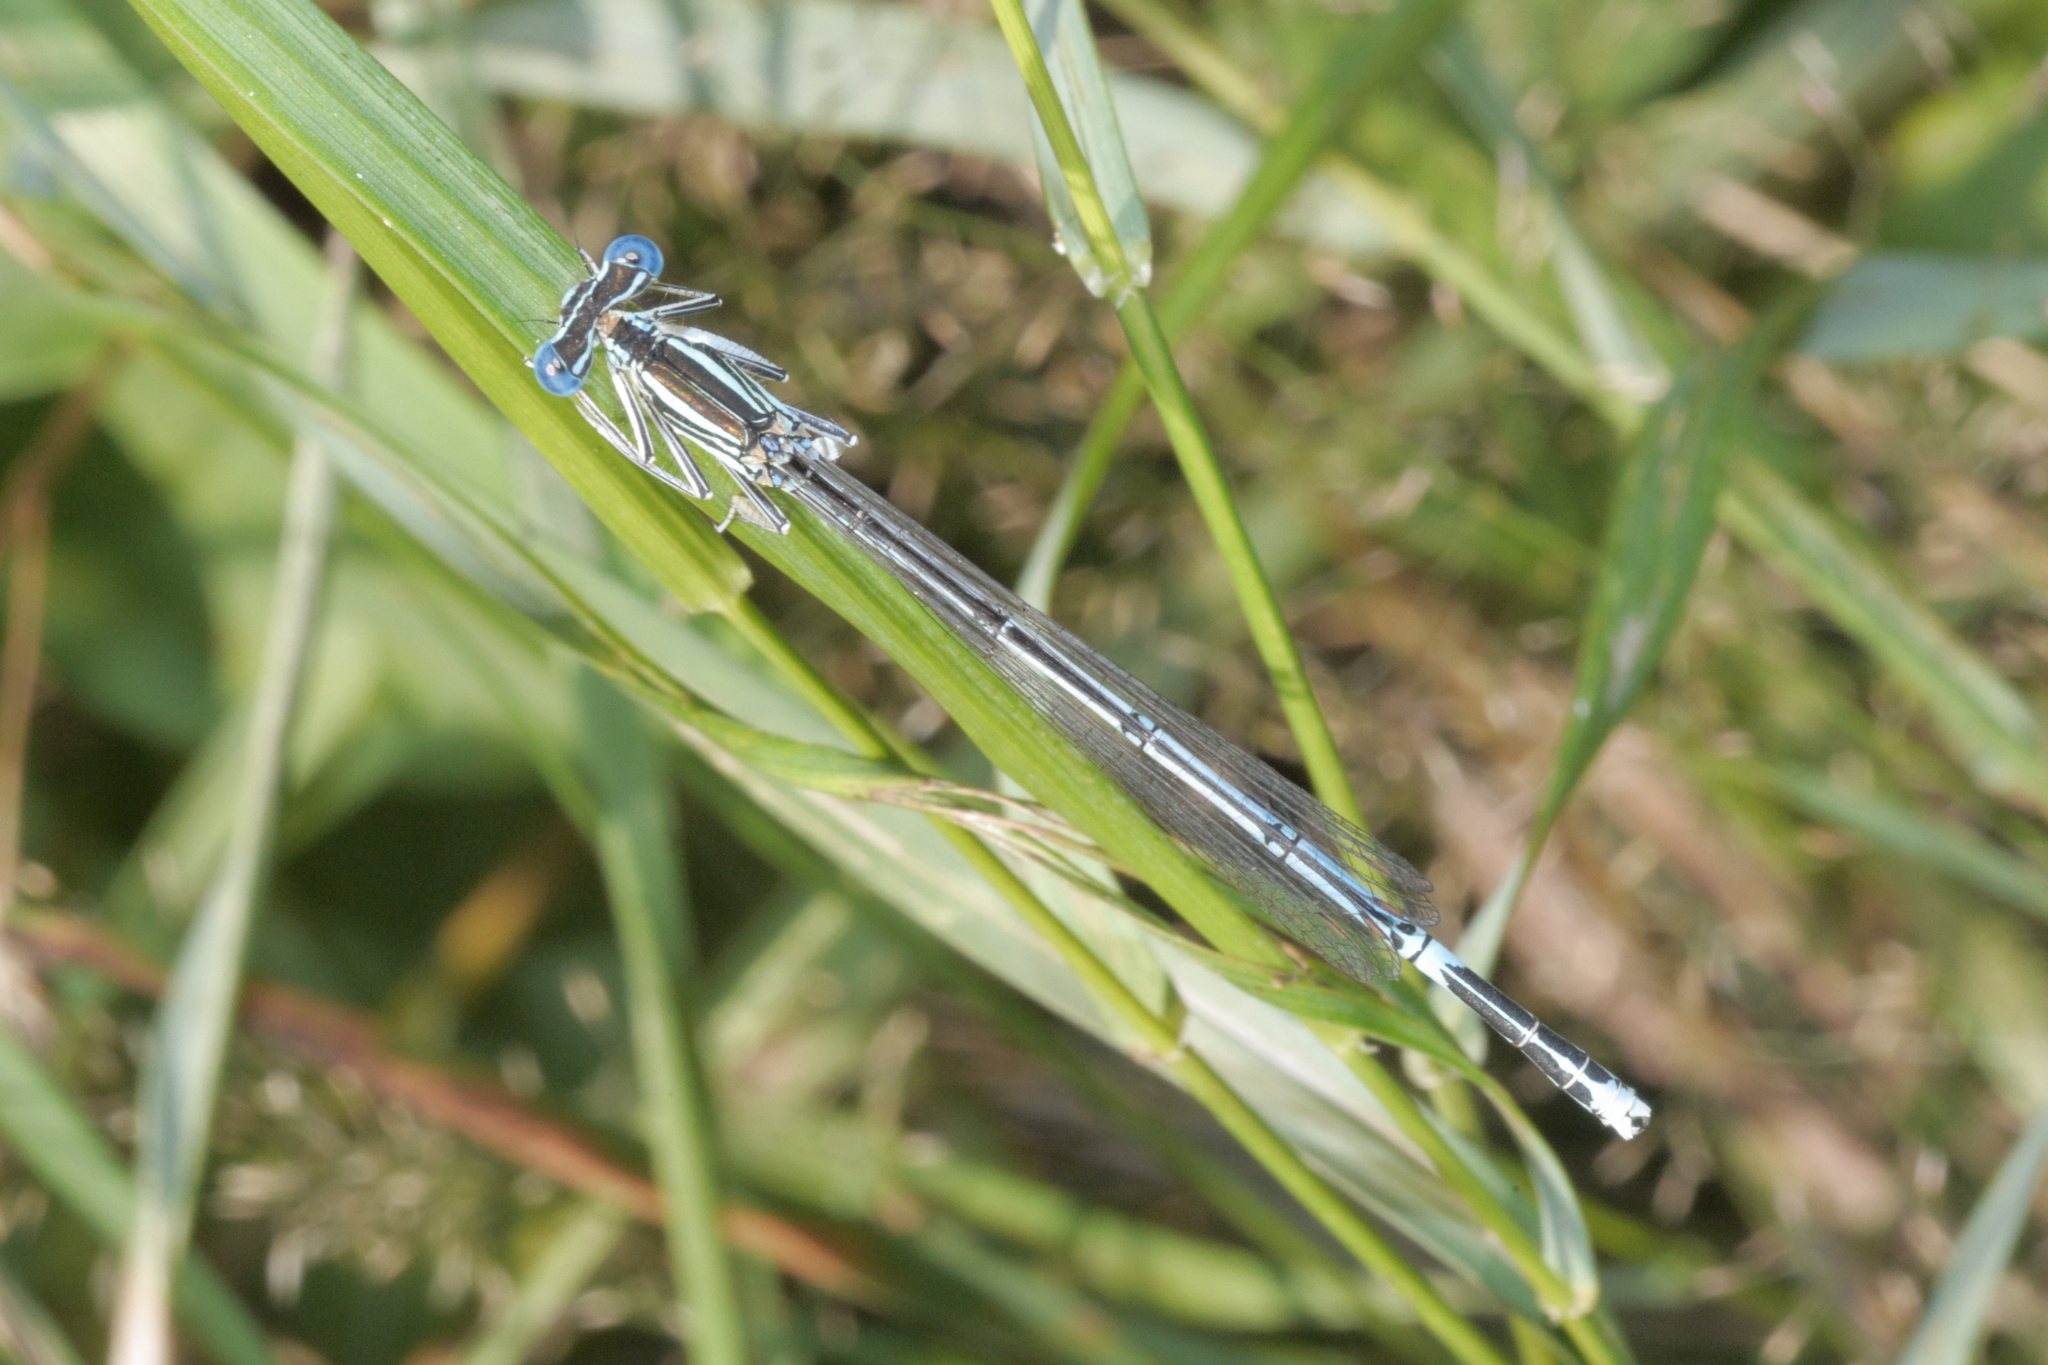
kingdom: Animalia
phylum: Arthropoda
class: Insecta
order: Odonata
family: Platycnemididae
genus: Platycnemis
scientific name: Platycnemis pennipes
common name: White-legged damselfly
